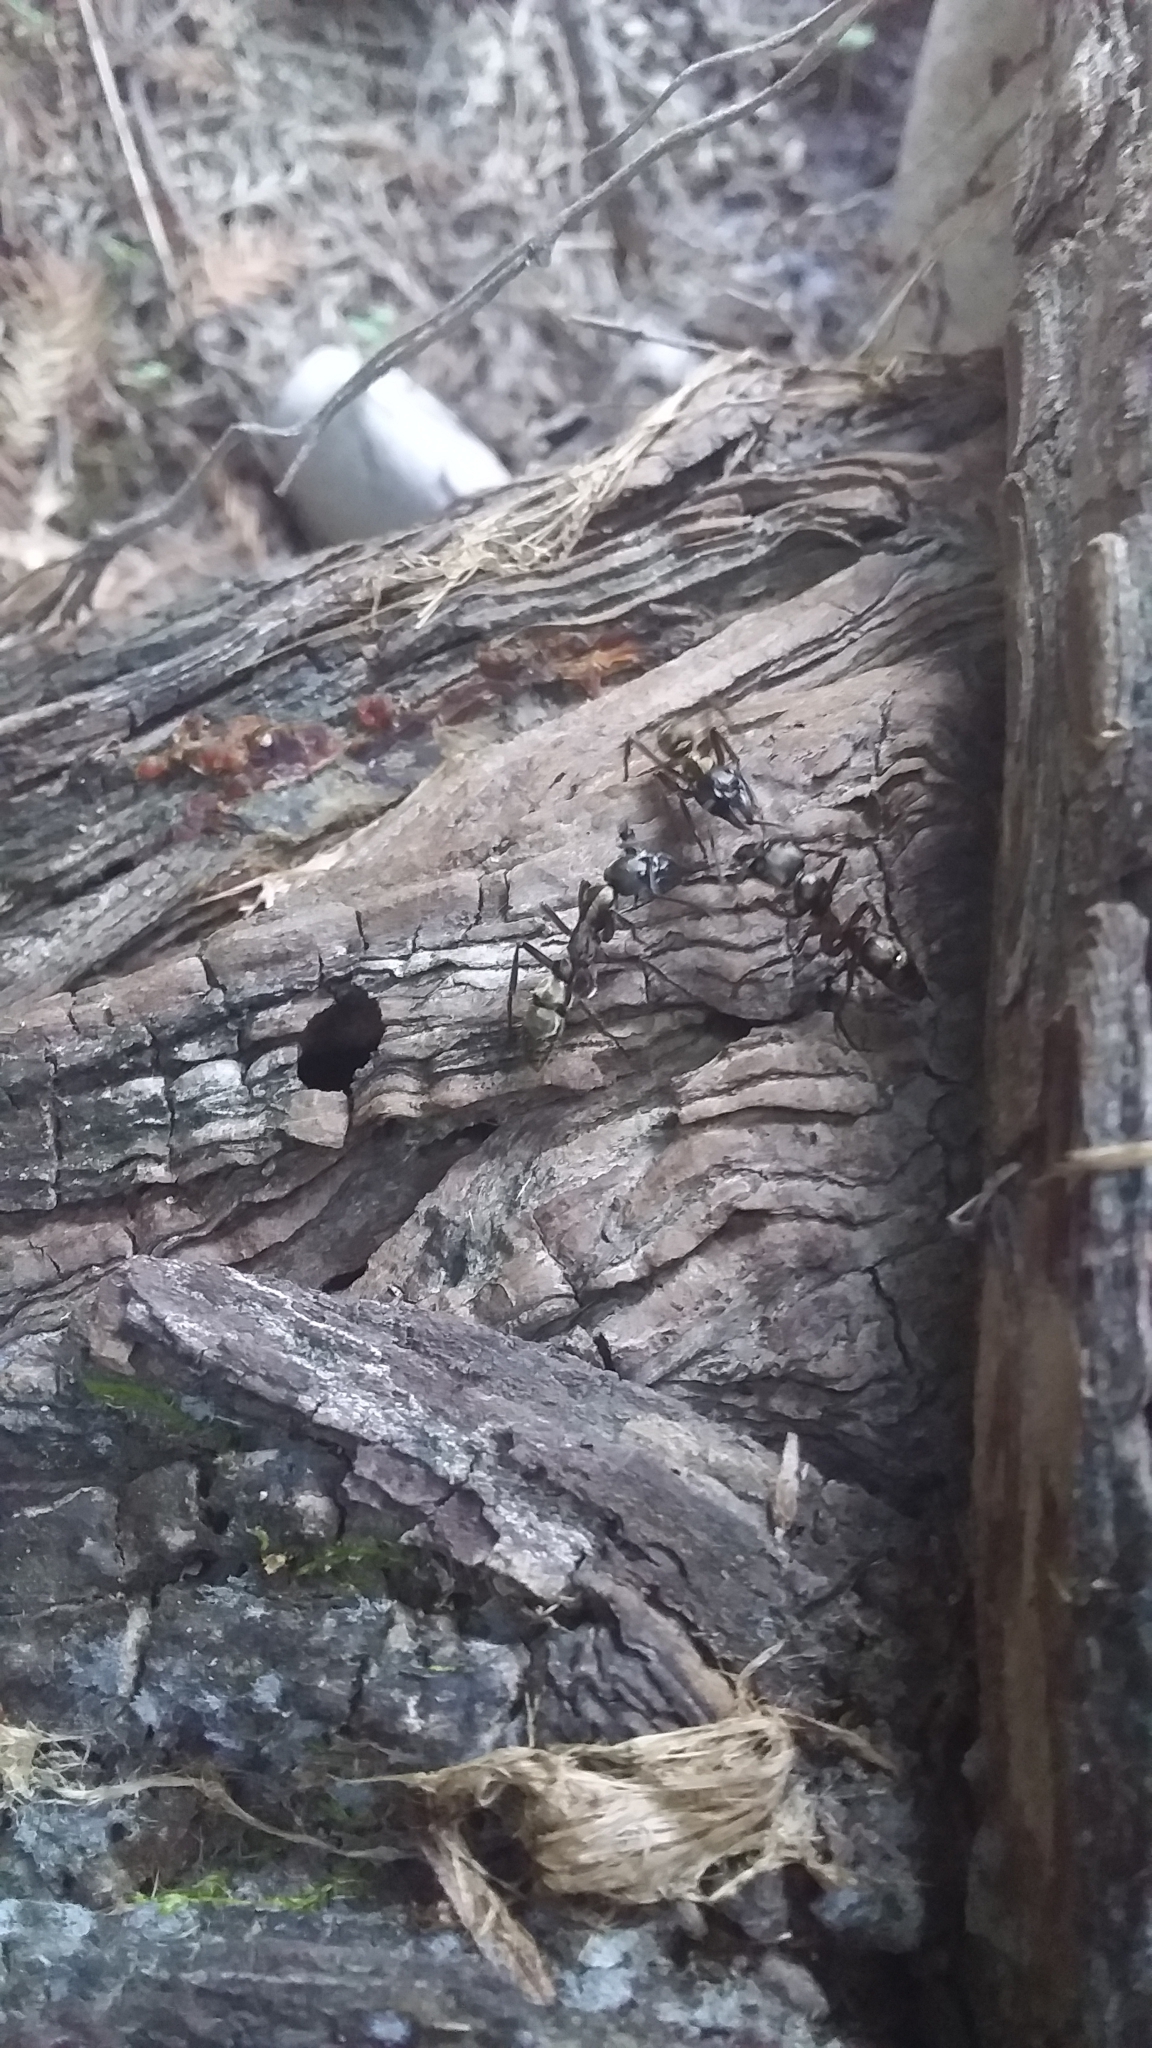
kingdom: Animalia
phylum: Arthropoda
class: Insecta
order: Hymenoptera
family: Formicidae
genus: Pachycondyla
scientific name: Pachycondyla villosa
